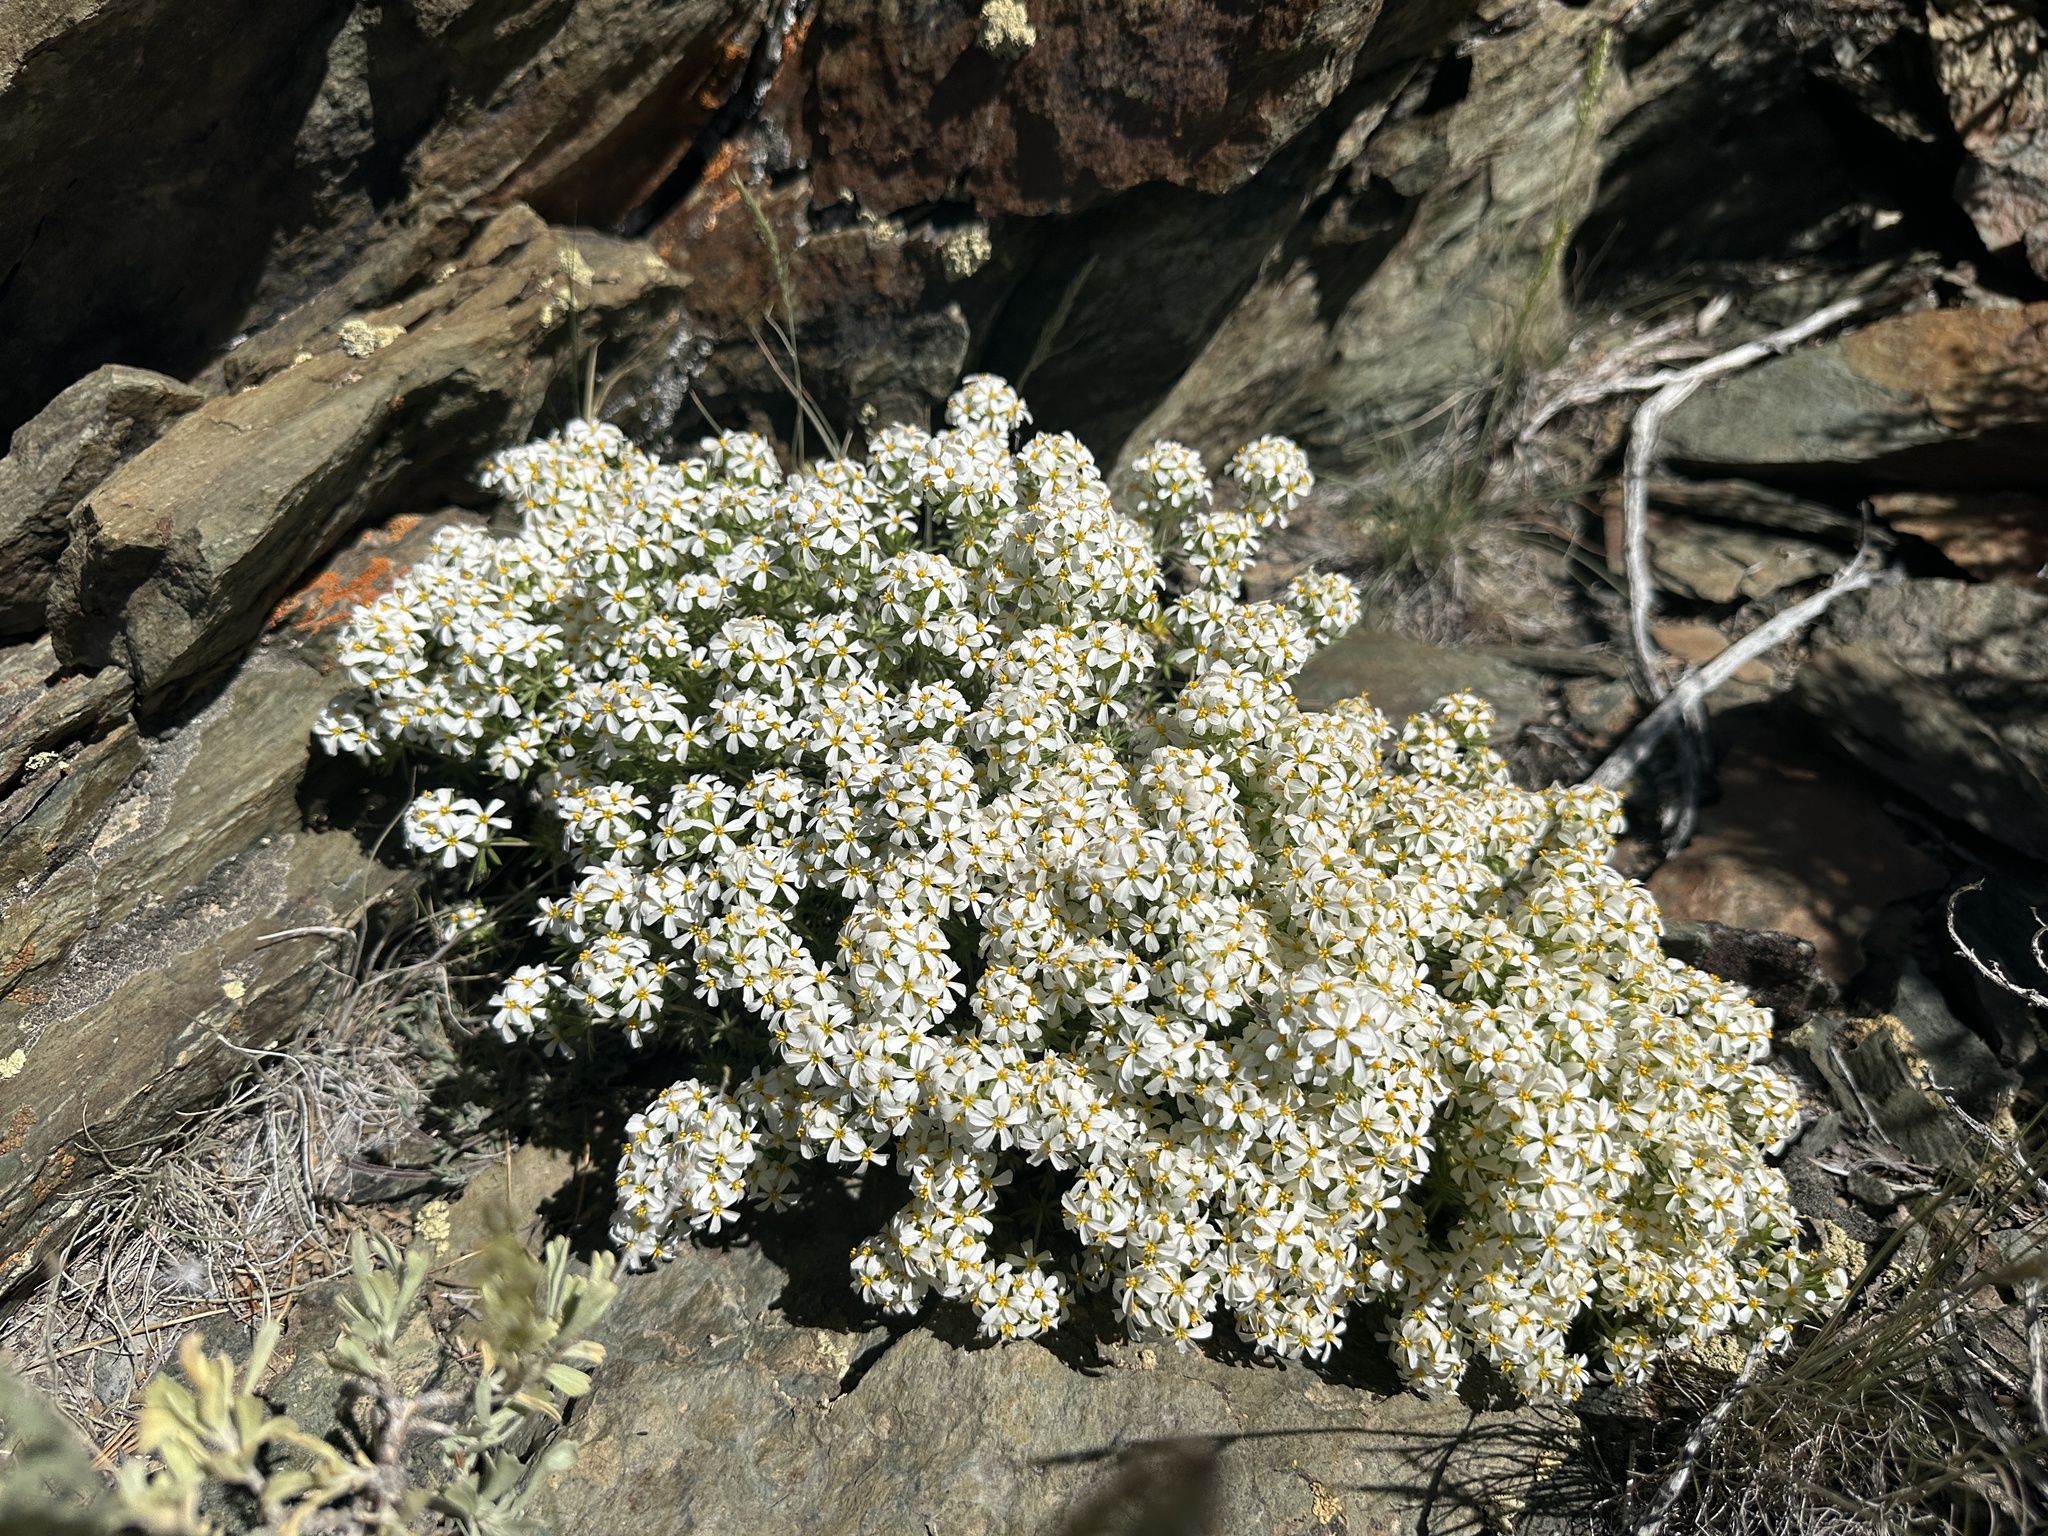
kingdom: Plantae
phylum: Tracheophyta
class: Magnoliopsida
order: Ericales
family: Polemoniaceae
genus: Leptosiphon
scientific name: Leptosiphon nuttallii
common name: Nuttall's linanthus
